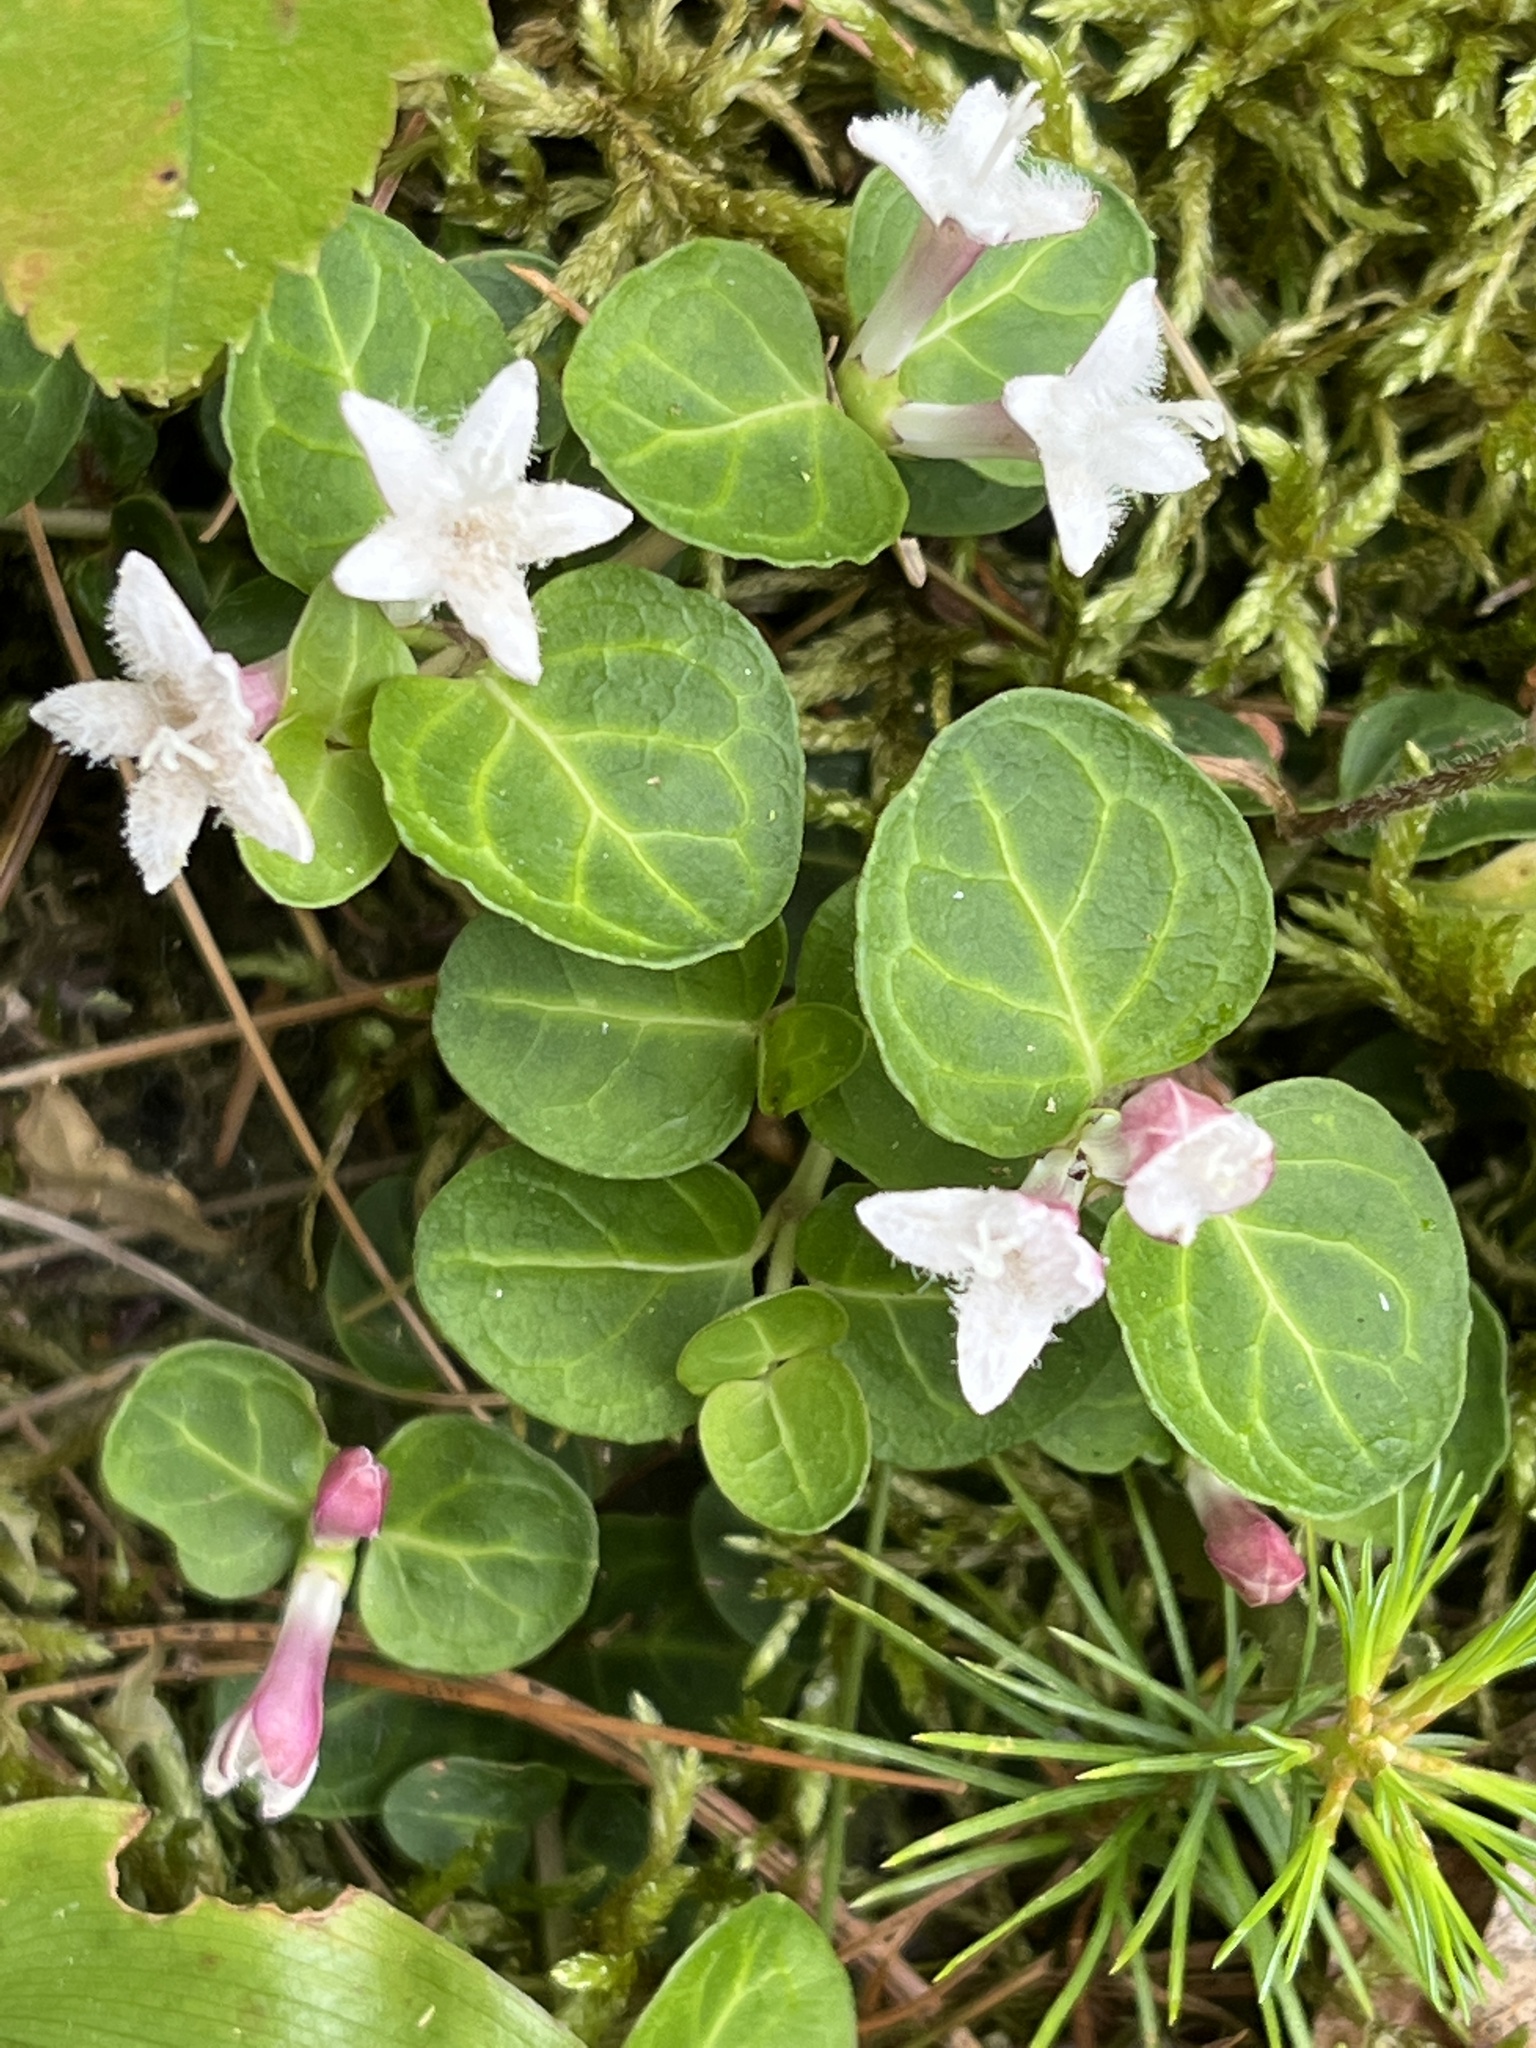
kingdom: Plantae
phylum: Tracheophyta
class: Magnoliopsida
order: Gentianales
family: Rubiaceae
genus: Mitchella
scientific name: Mitchella repens
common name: Partridge-berry
